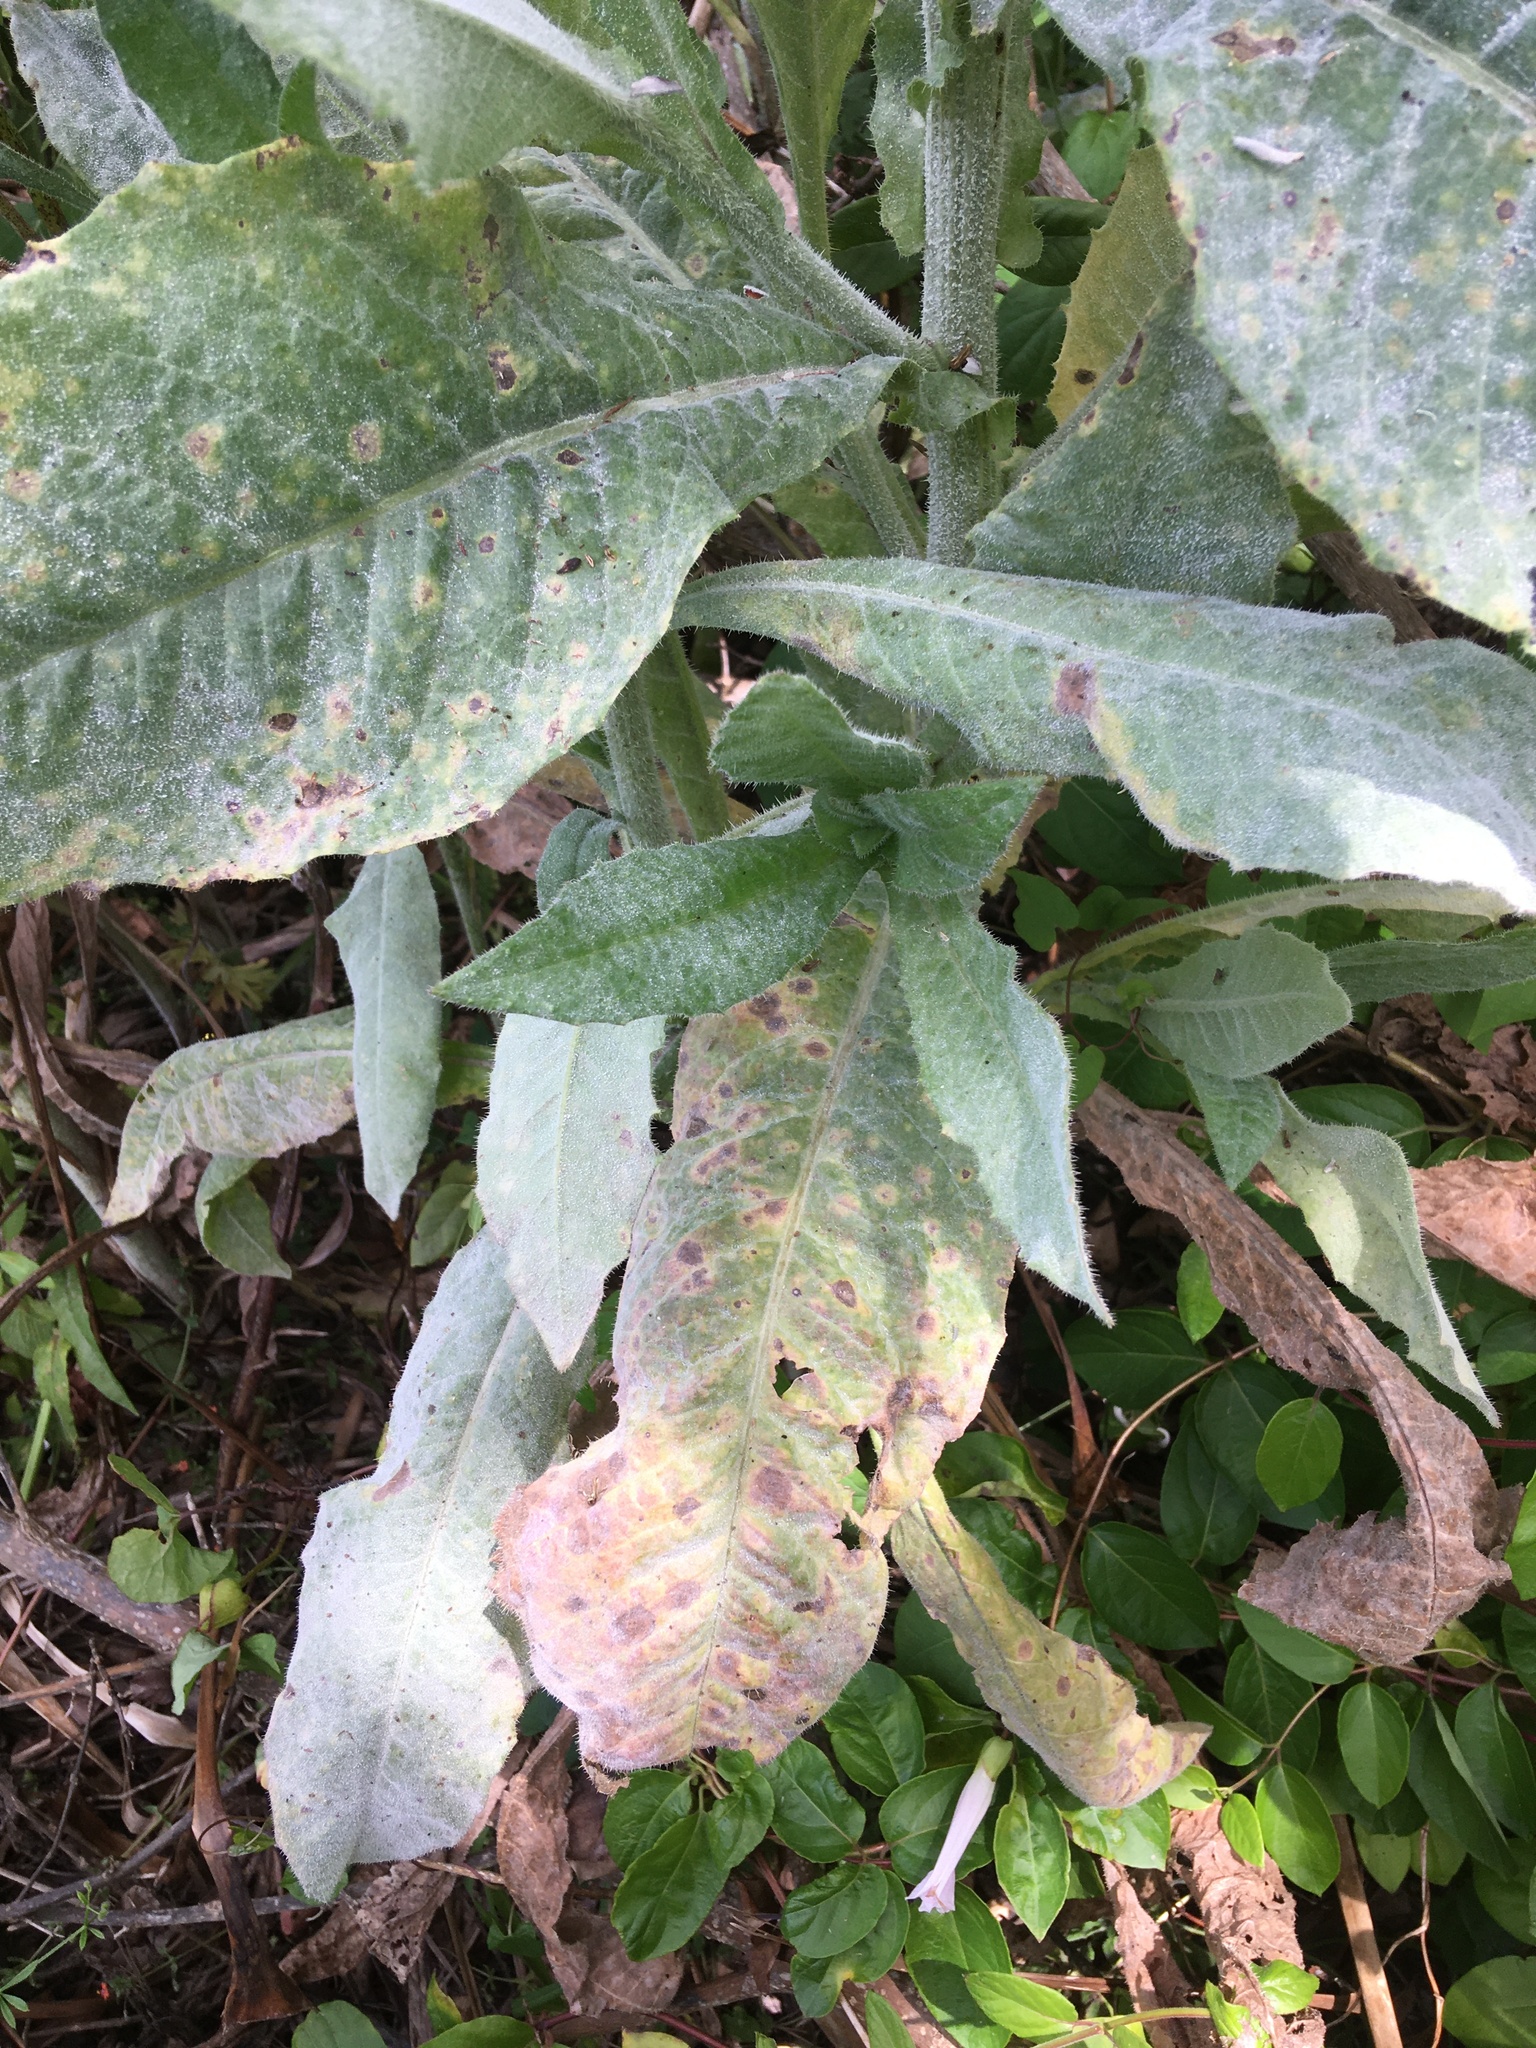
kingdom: Plantae
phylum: Tracheophyta
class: Magnoliopsida
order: Asterales
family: Asteraceae
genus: Helminthotheca
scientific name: Helminthotheca echioides
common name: Ox-tongue
